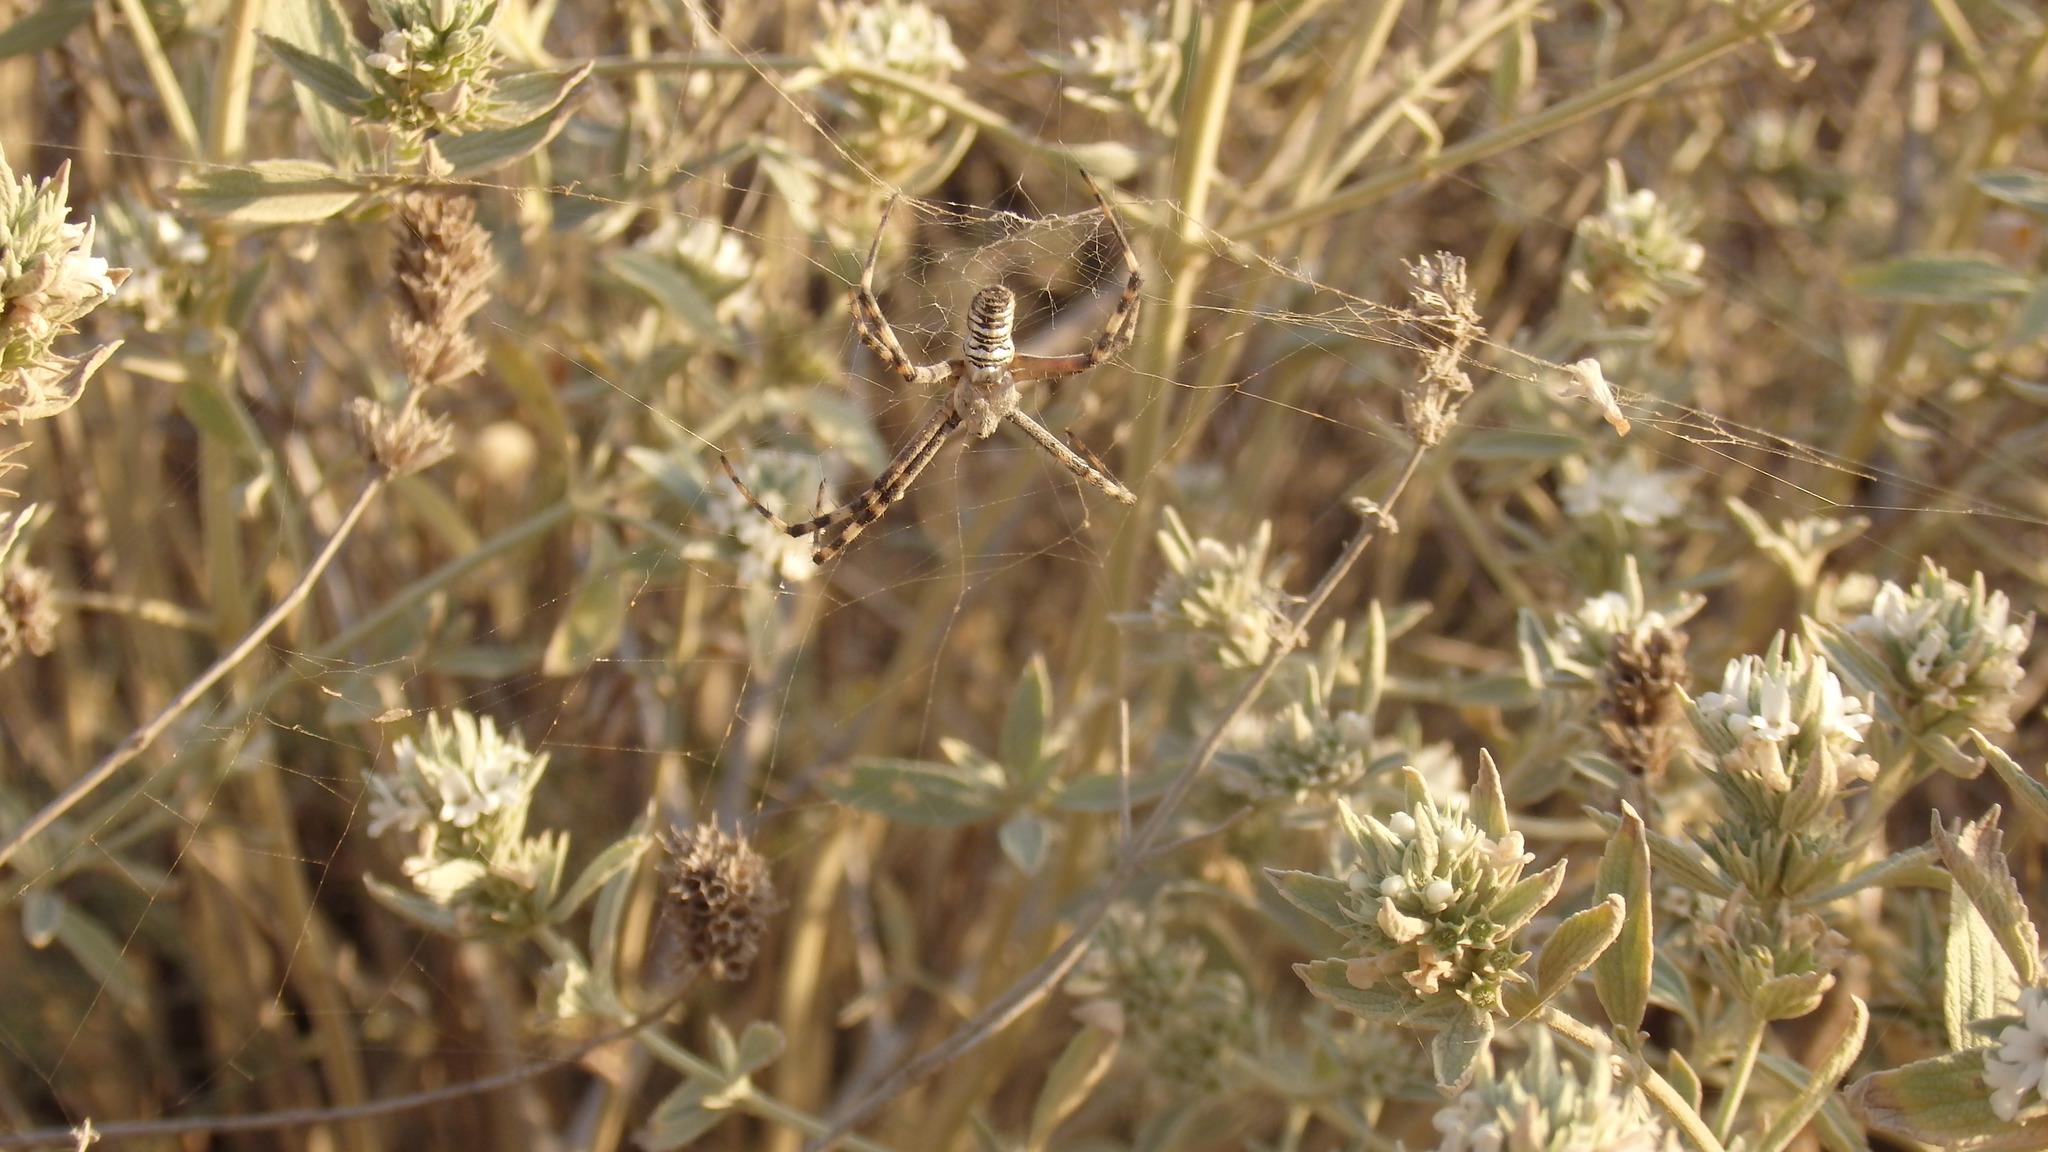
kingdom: Animalia
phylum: Arthropoda
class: Arachnida
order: Araneae
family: Araneidae
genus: Argiope
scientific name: Argiope bruennichi
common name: Wasp spider
